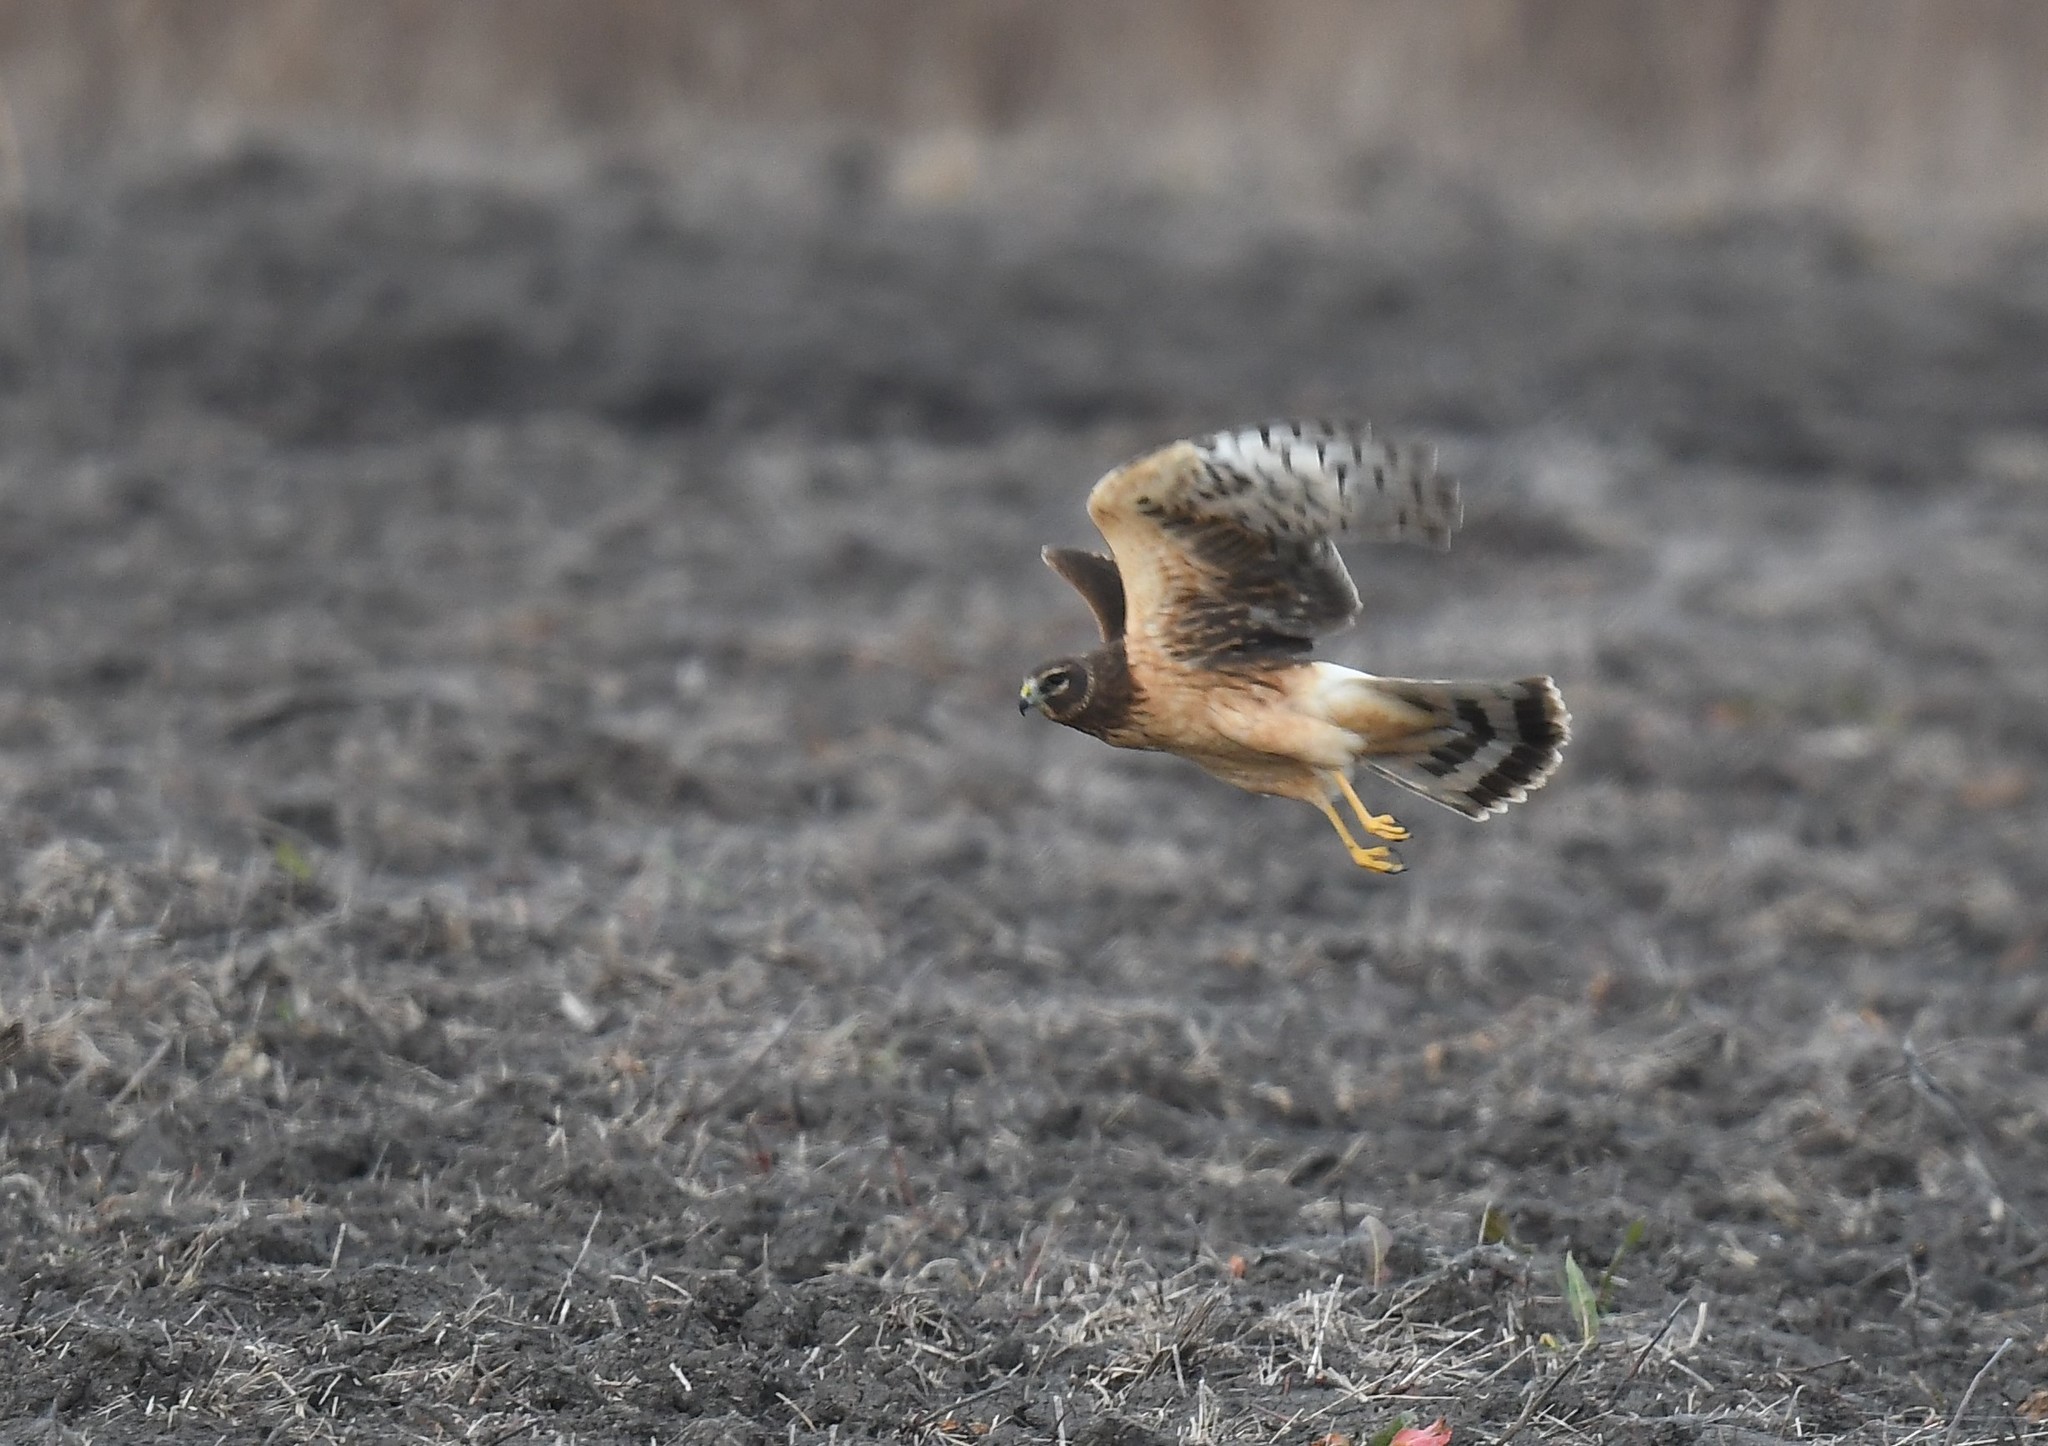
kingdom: Animalia
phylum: Chordata
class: Aves
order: Accipitriformes
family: Accipitridae
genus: Circus
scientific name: Circus cyaneus
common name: Hen harrier
